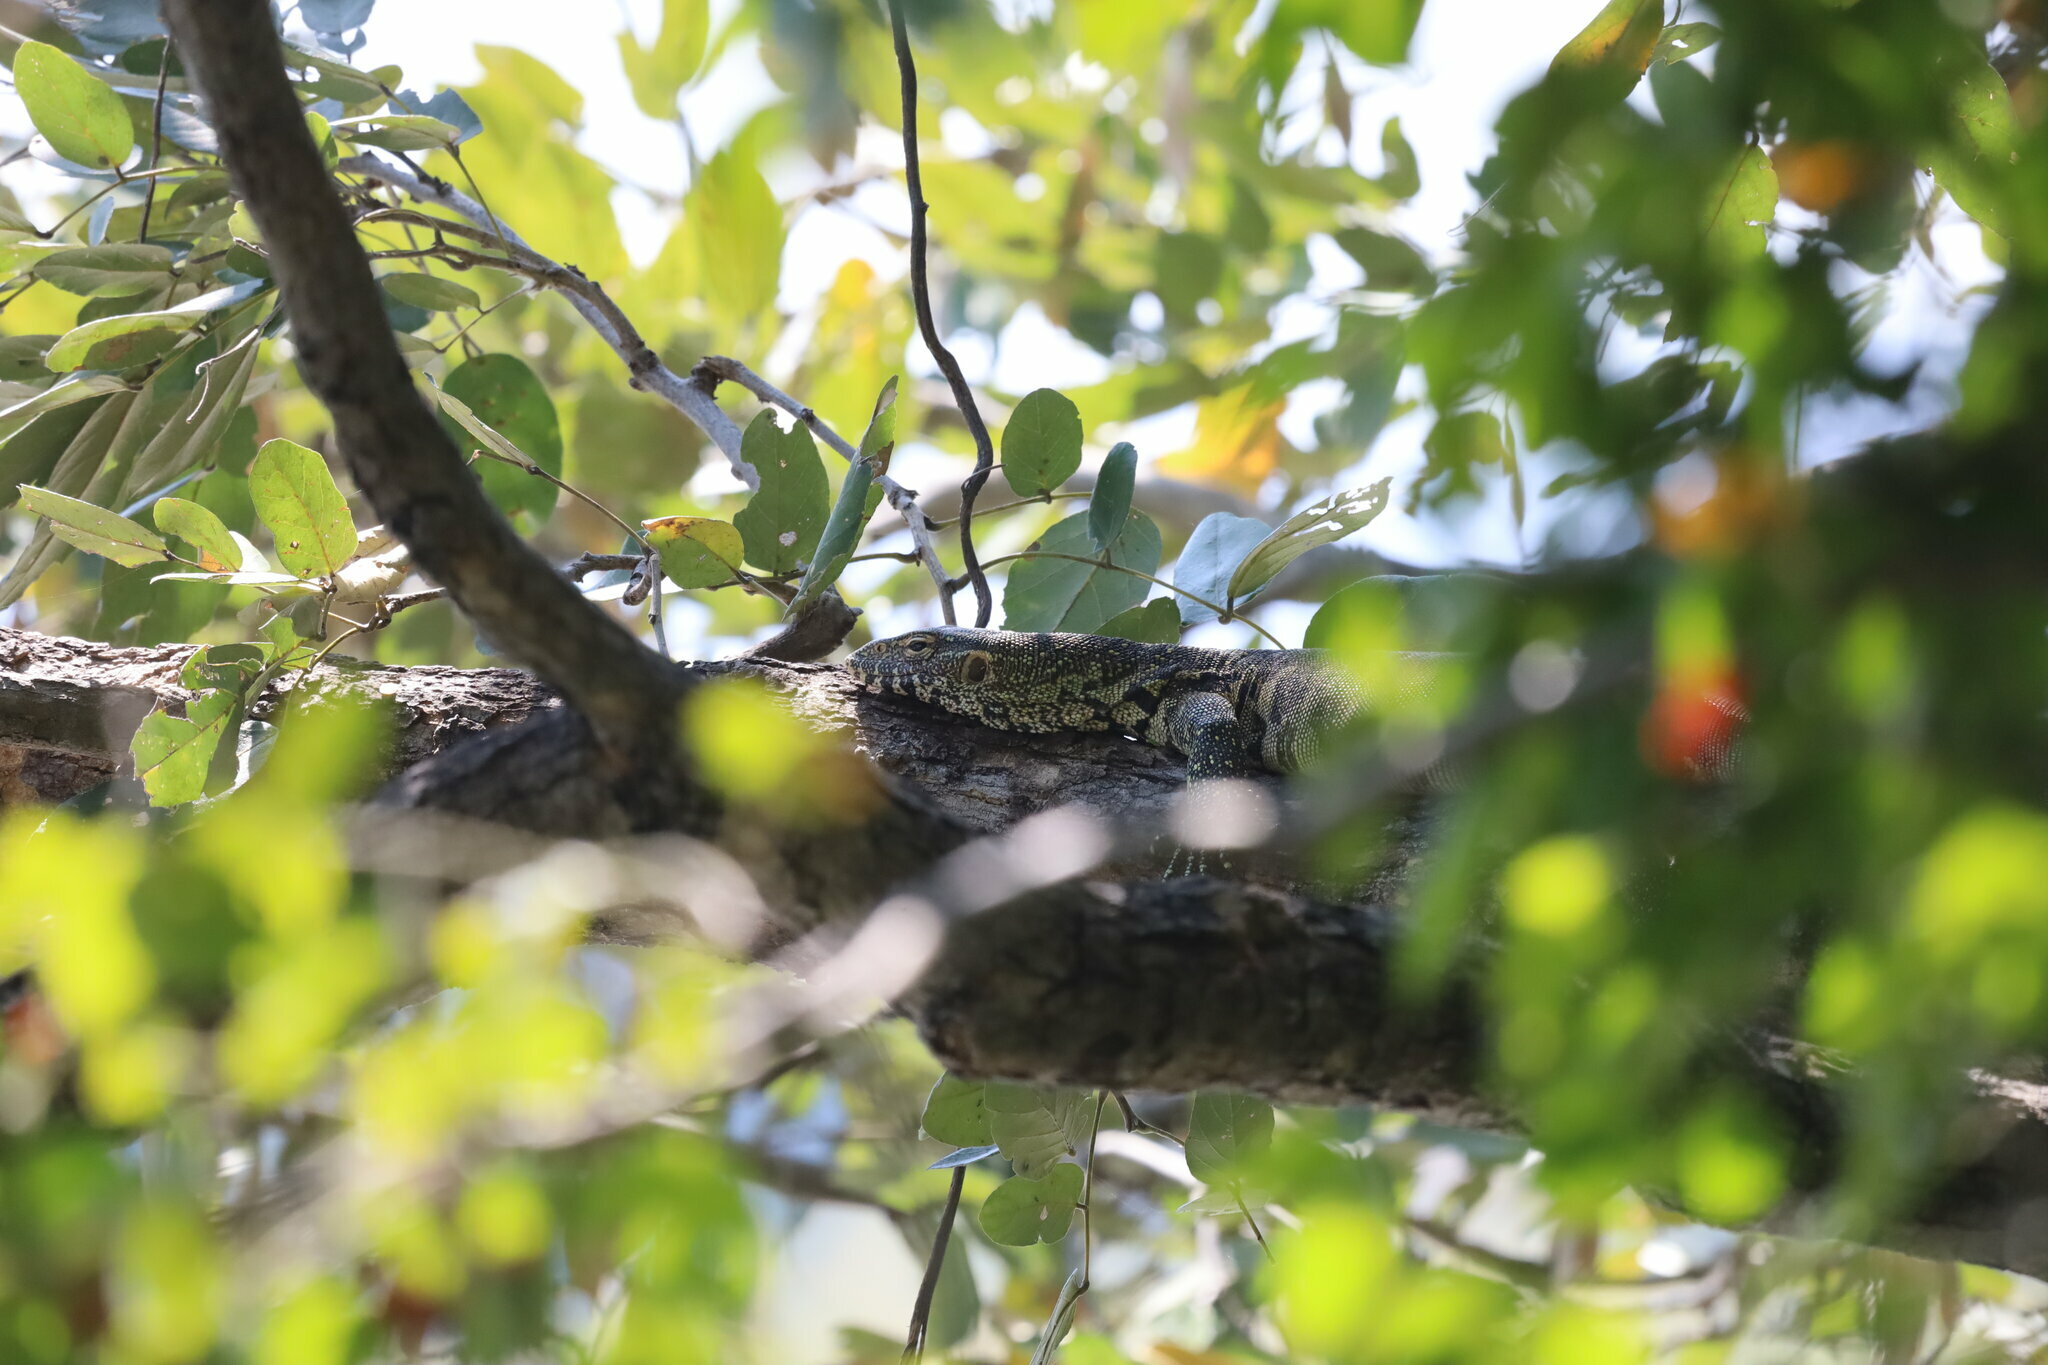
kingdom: Animalia
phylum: Chordata
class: Squamata
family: Varanidae
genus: Varanus
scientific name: Varanus niloticus
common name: Nile monitor
